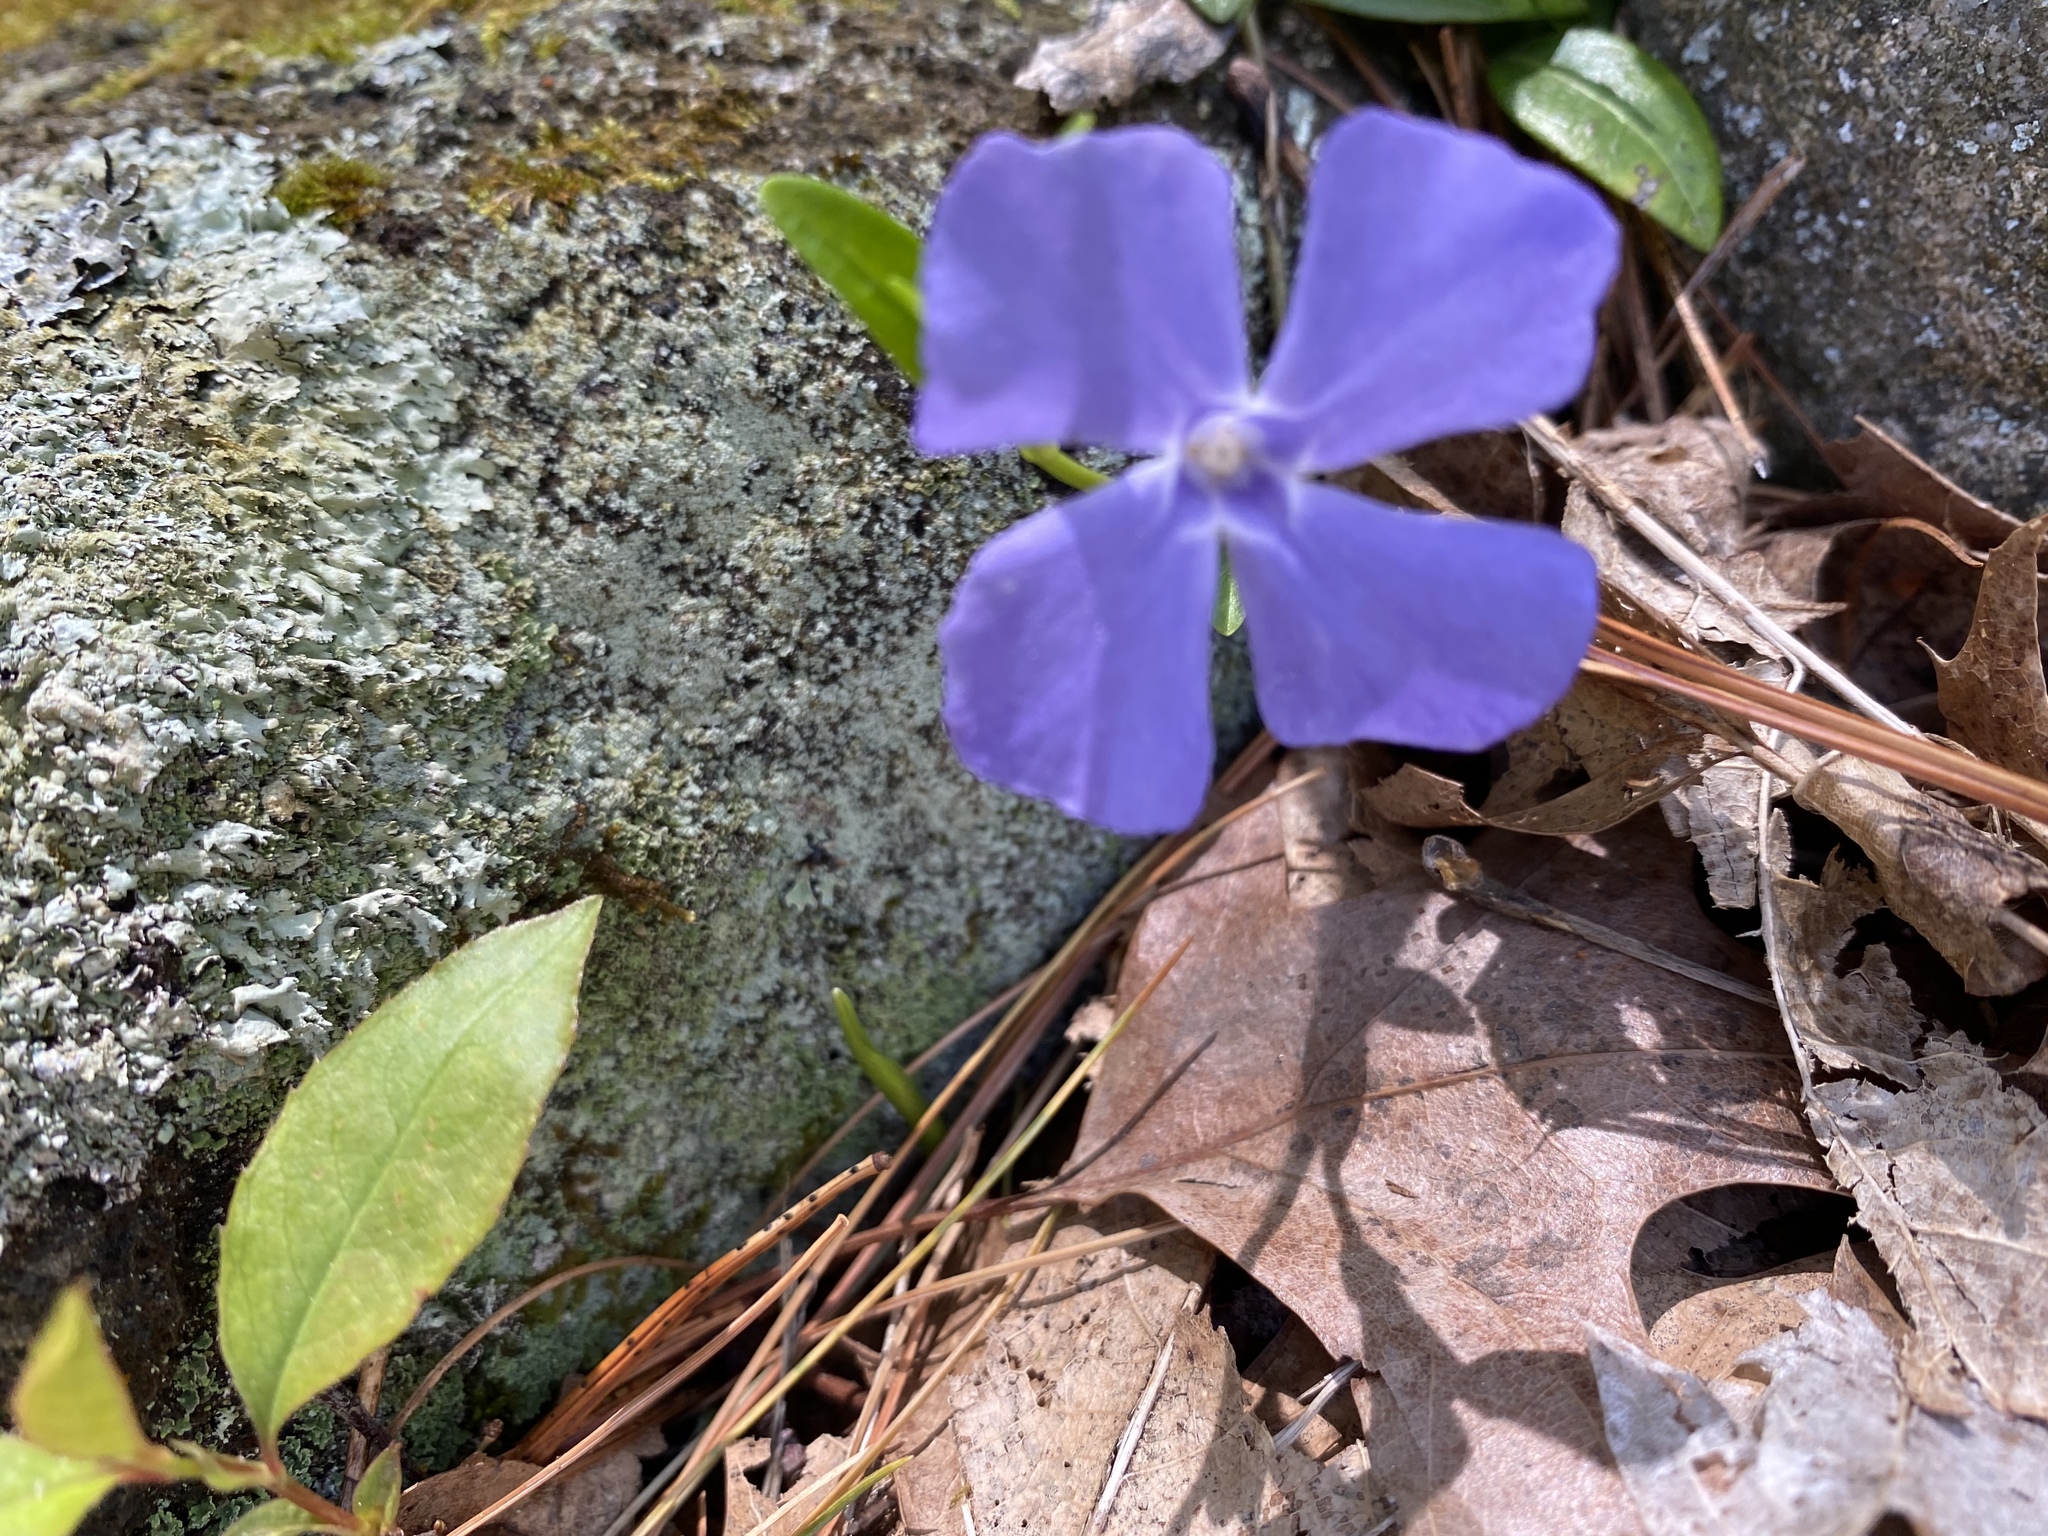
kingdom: Plantae
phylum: Tracheophyta
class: Magnoliopsida
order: Gentianales
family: Apocynaceae
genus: Vinca
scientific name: Vinca minor
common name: Lesser periwinkle
